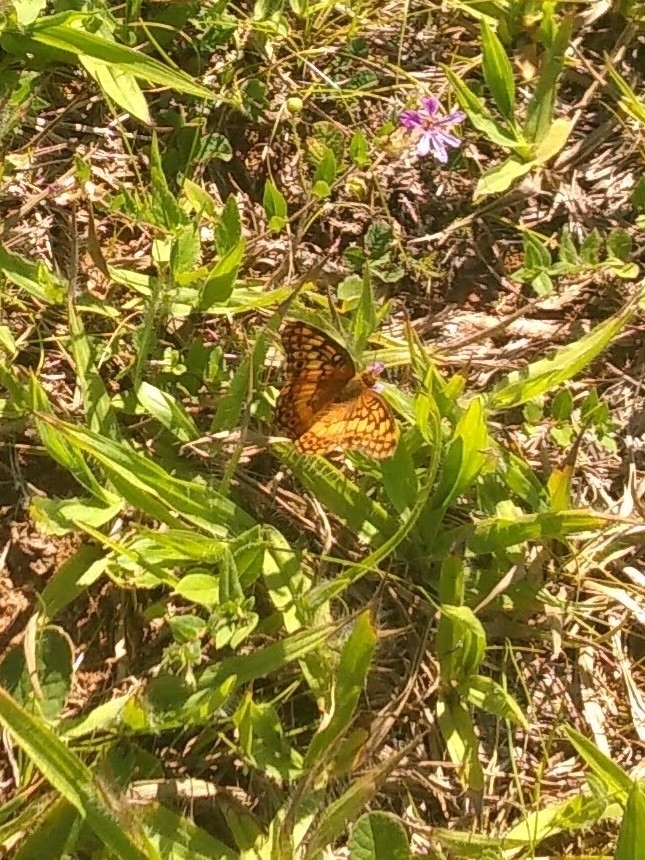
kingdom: Animalia
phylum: Arthropoda
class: Insecta
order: Lepidoptera
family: Nymphalidae
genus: Euptoieta
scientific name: Euptoieta hortensia
